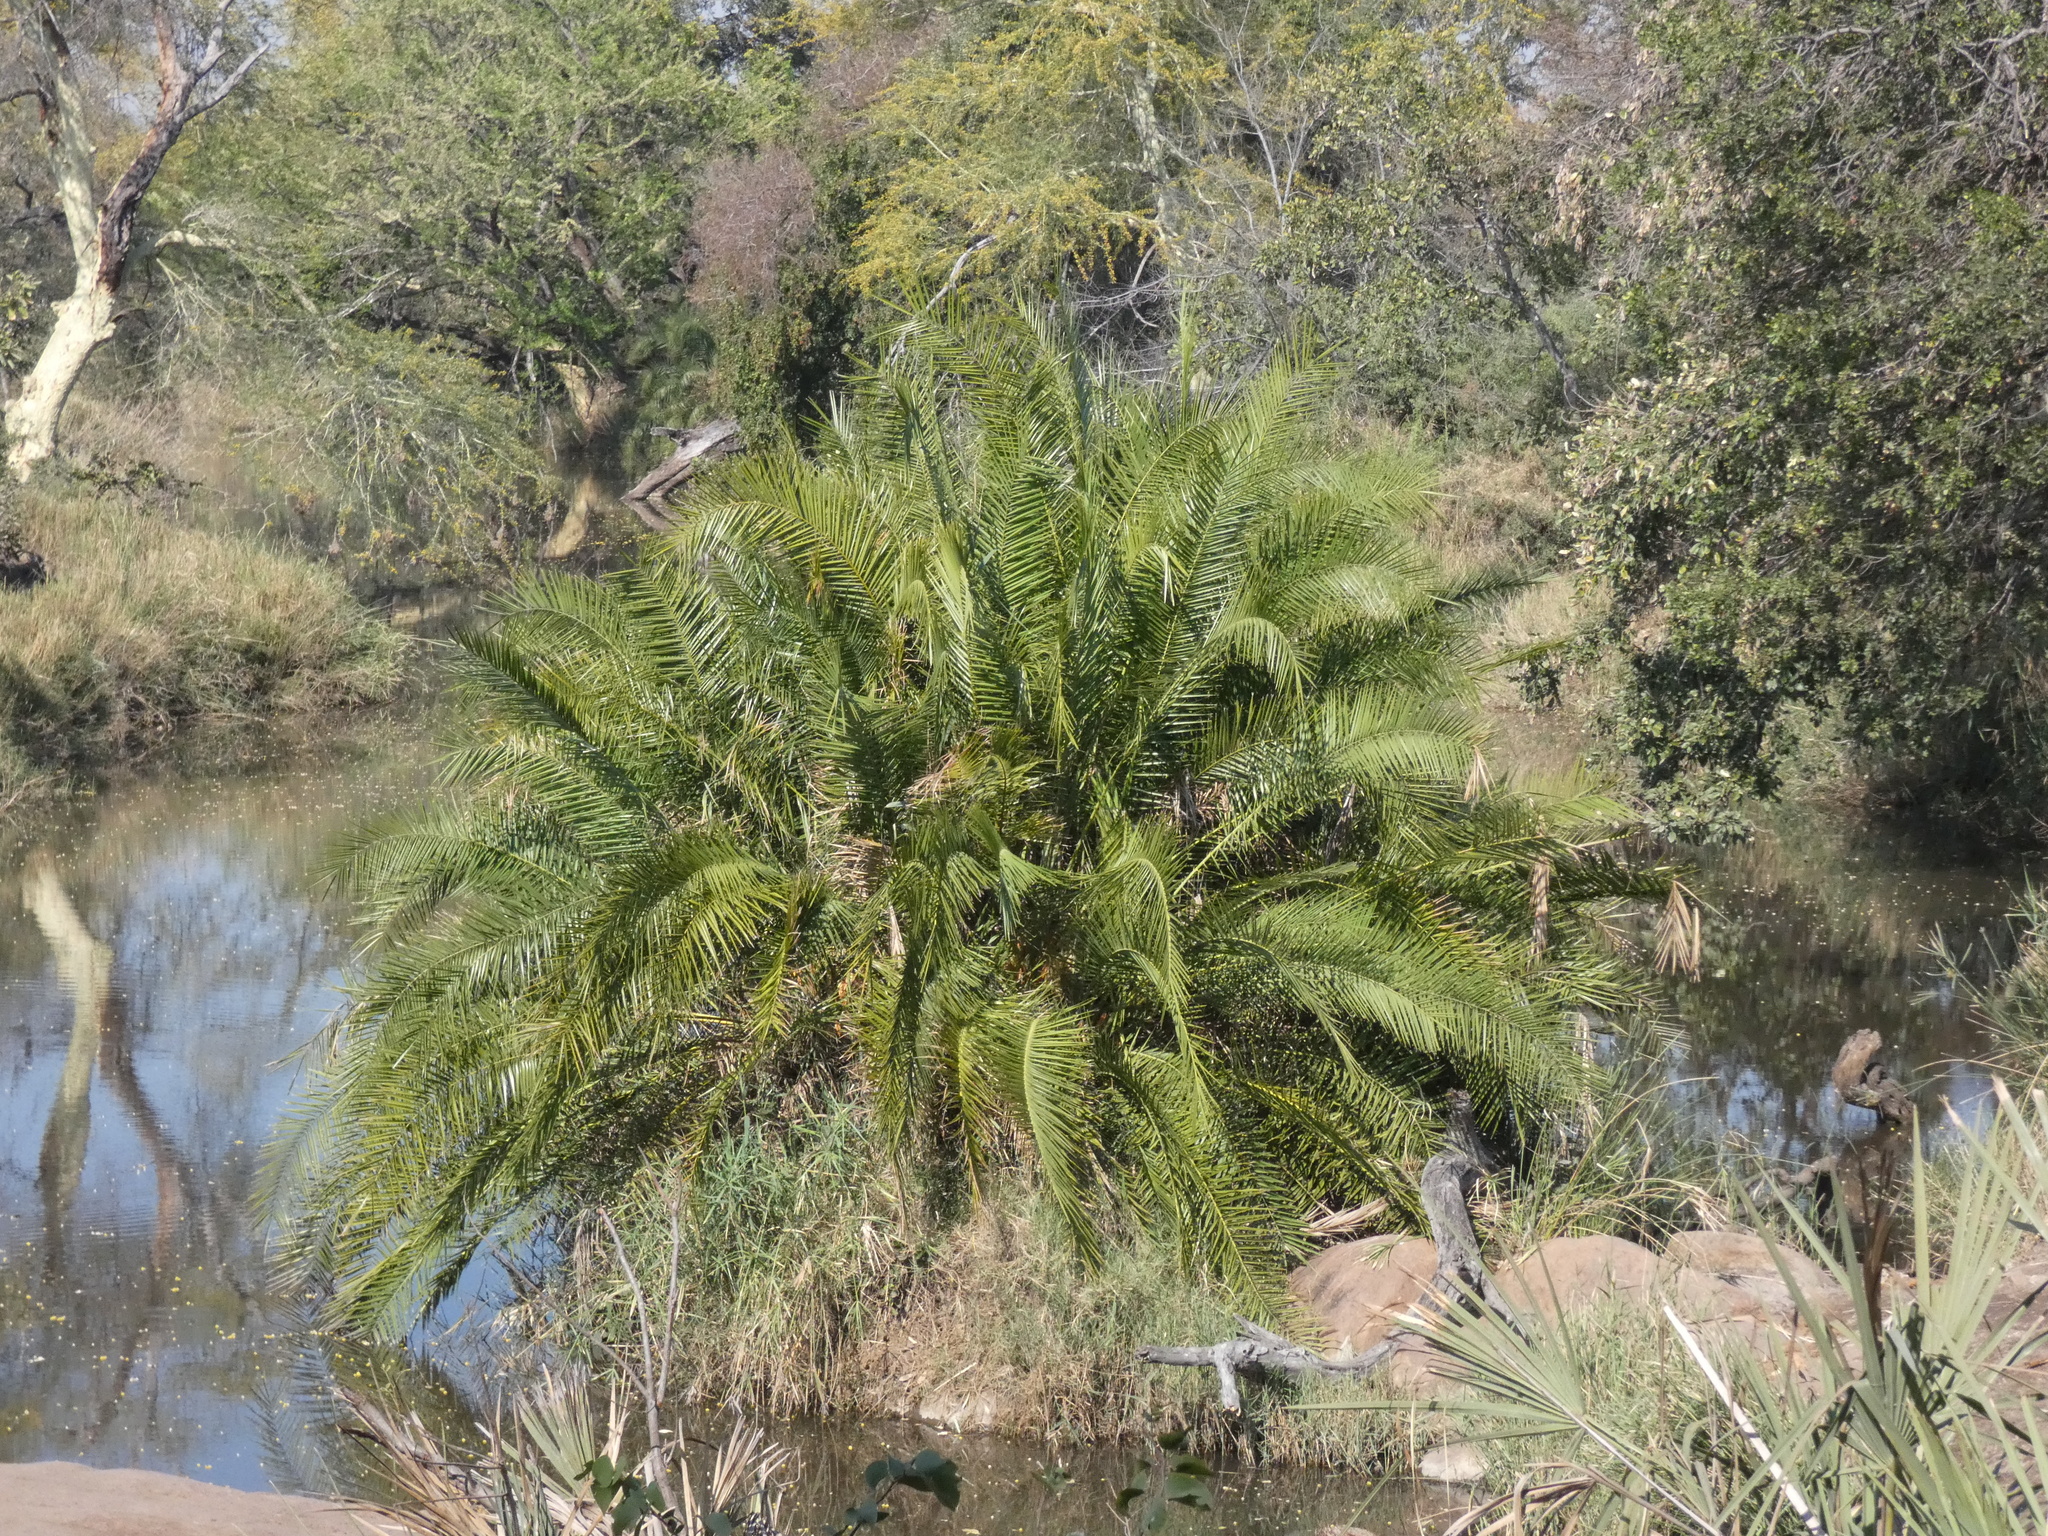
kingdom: Plantae
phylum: Tracheophyta
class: Liliopsida
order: Arecales
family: Arecaceae
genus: Phoenix
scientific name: Phoenix reclinata
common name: Senegal date palm
